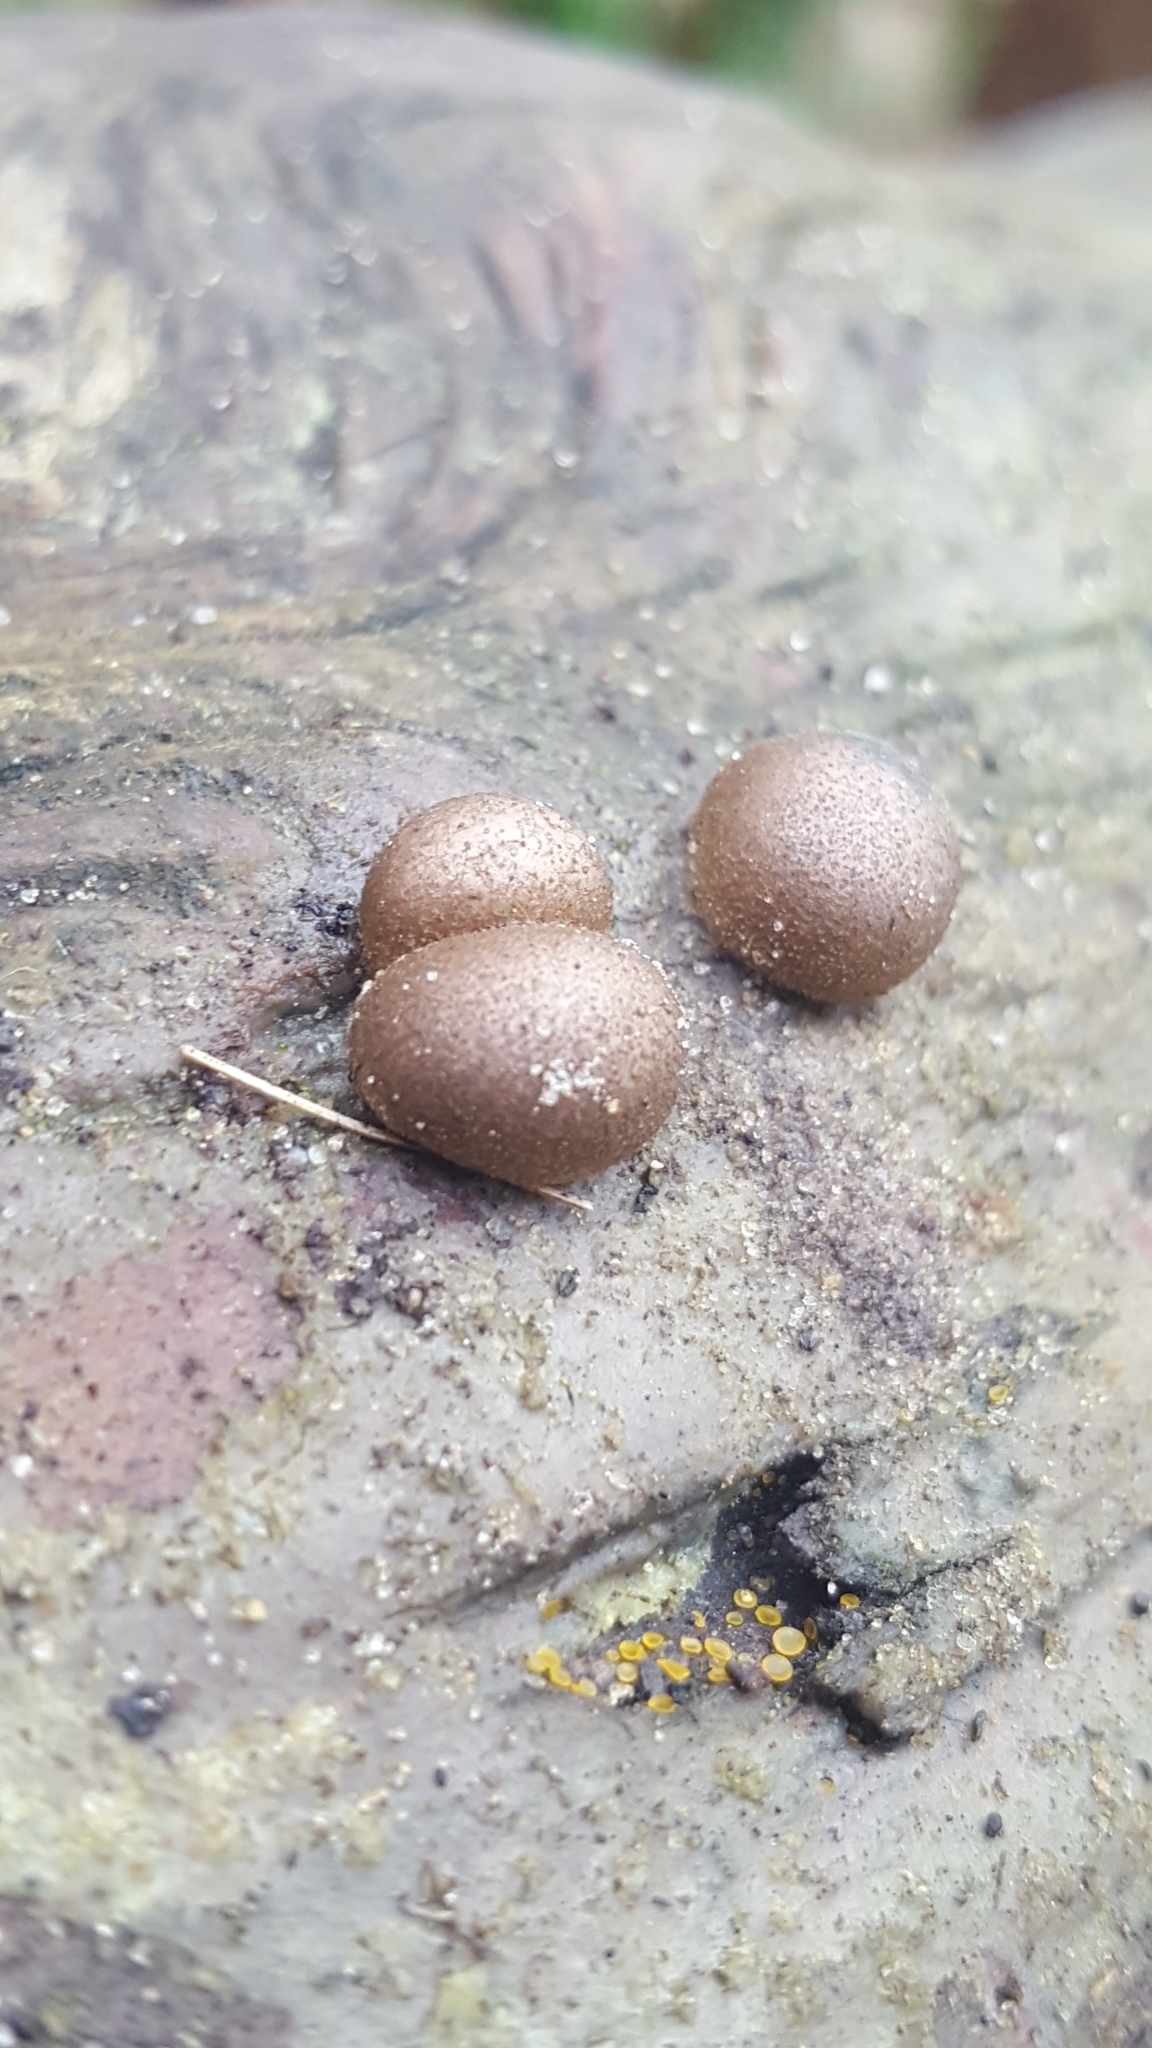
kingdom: Protozoa
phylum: Mycetozoa
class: Myxomycetes
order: Cribrariales
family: Tubiferaceae
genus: Lycogala
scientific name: Lycogala epidendrum
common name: Wolf's milk
